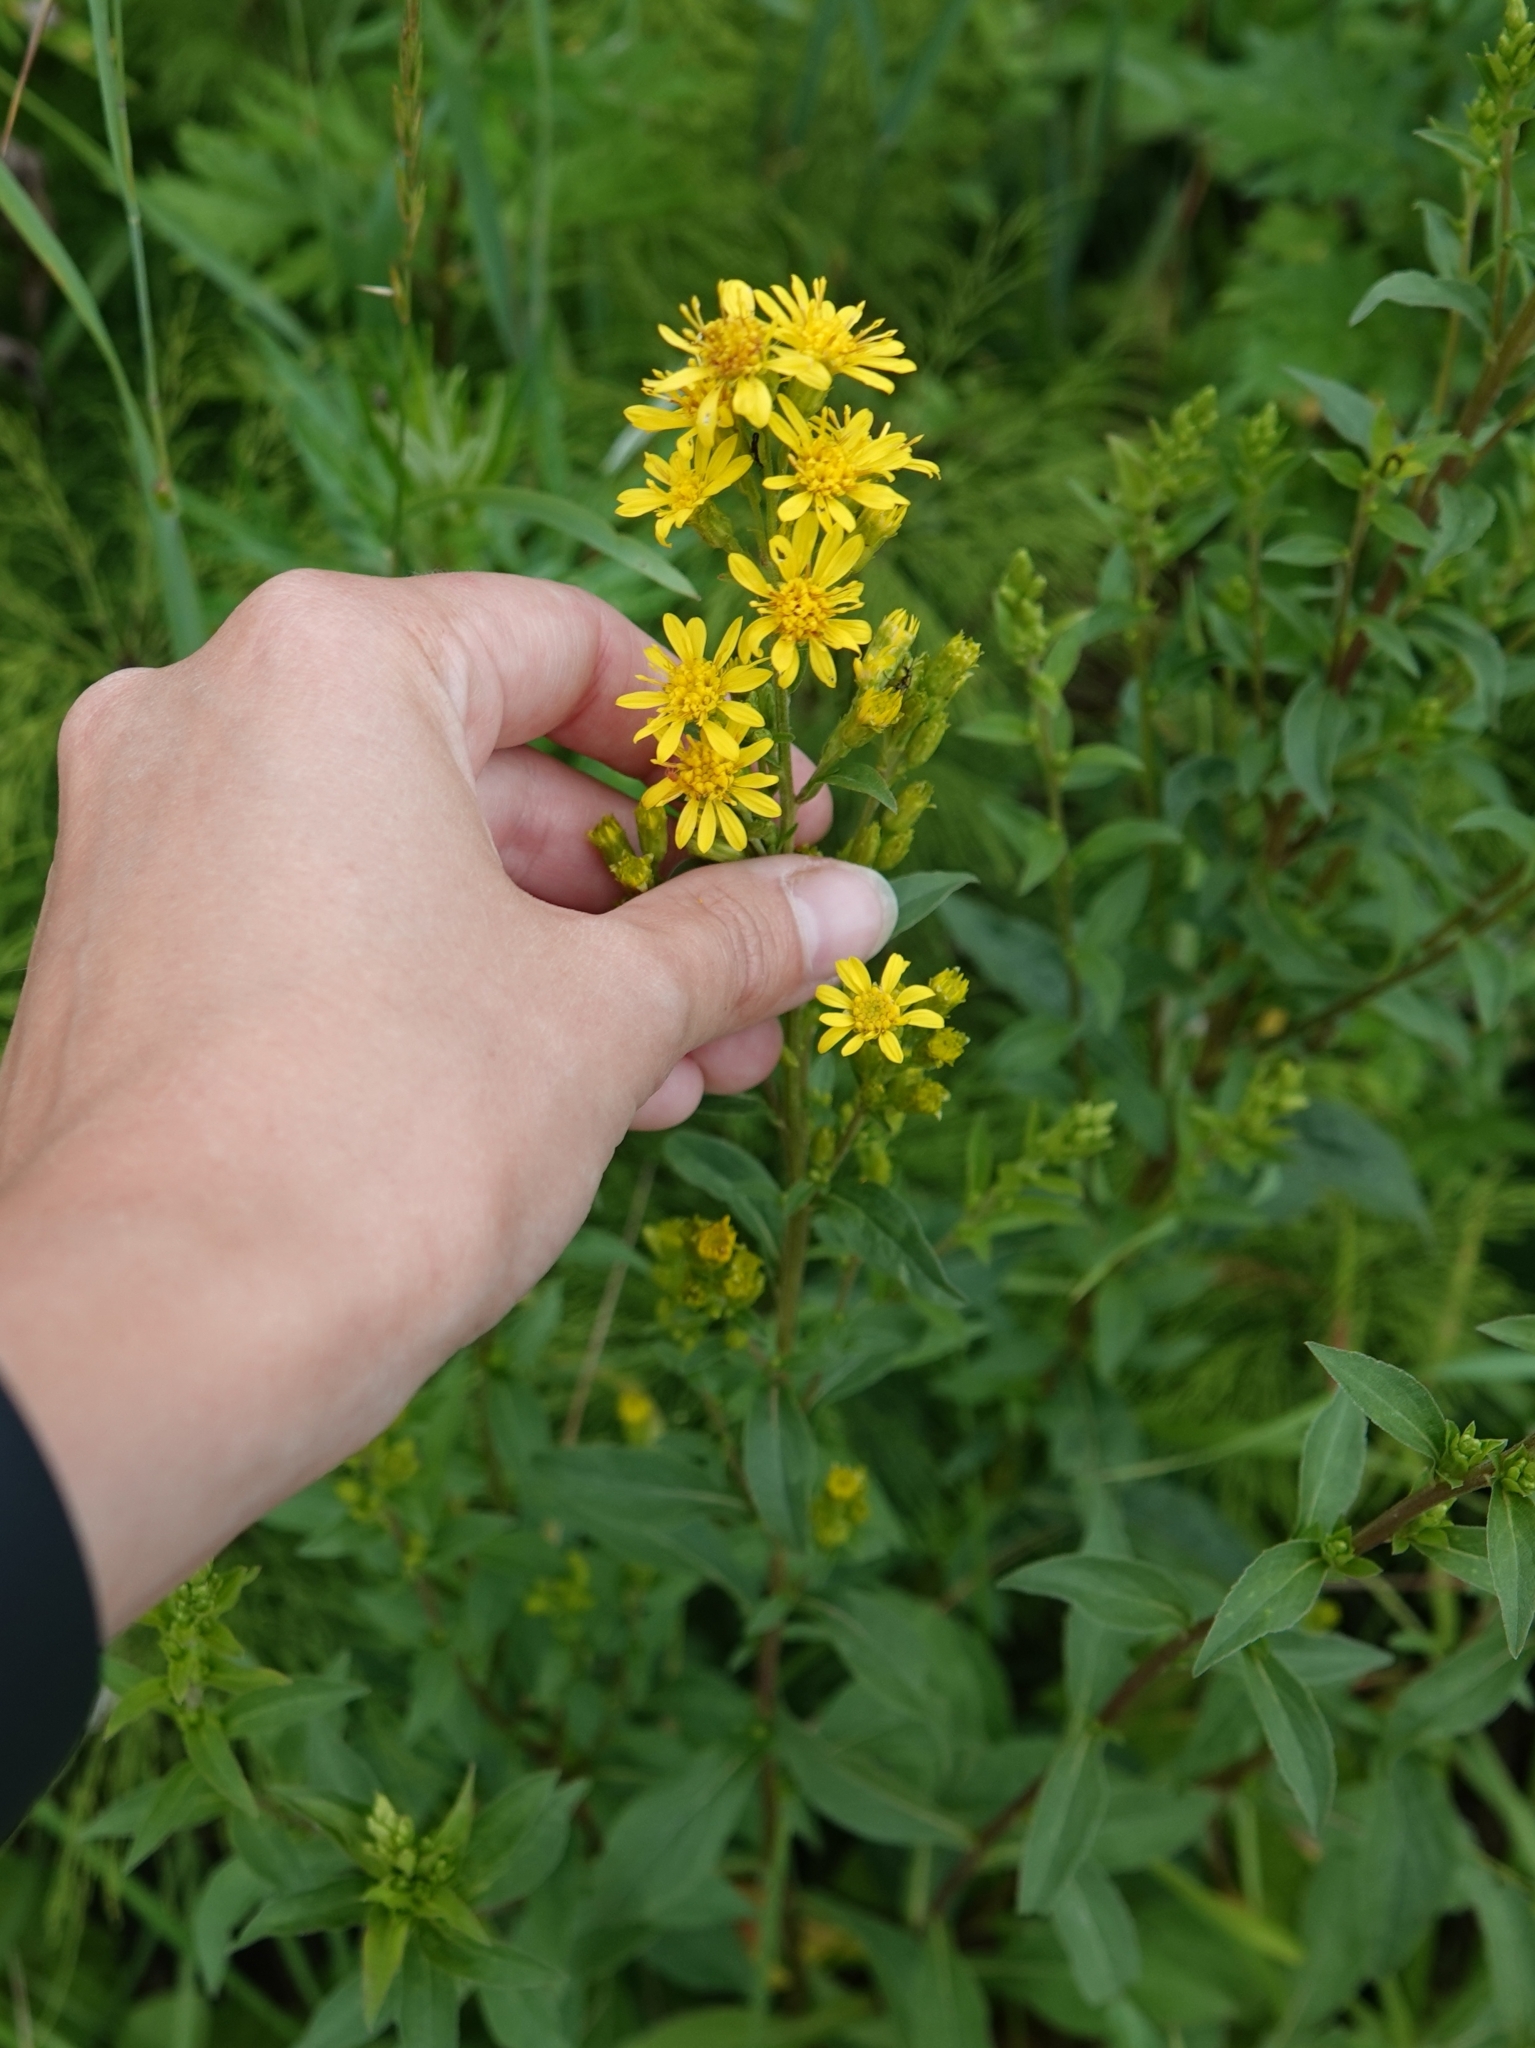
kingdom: Plantae
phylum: Tracheophyta
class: Magnoliopsida
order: Asterales
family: Asteraceae
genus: Solidago
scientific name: Solidago virgaurea
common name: Goldenrod
